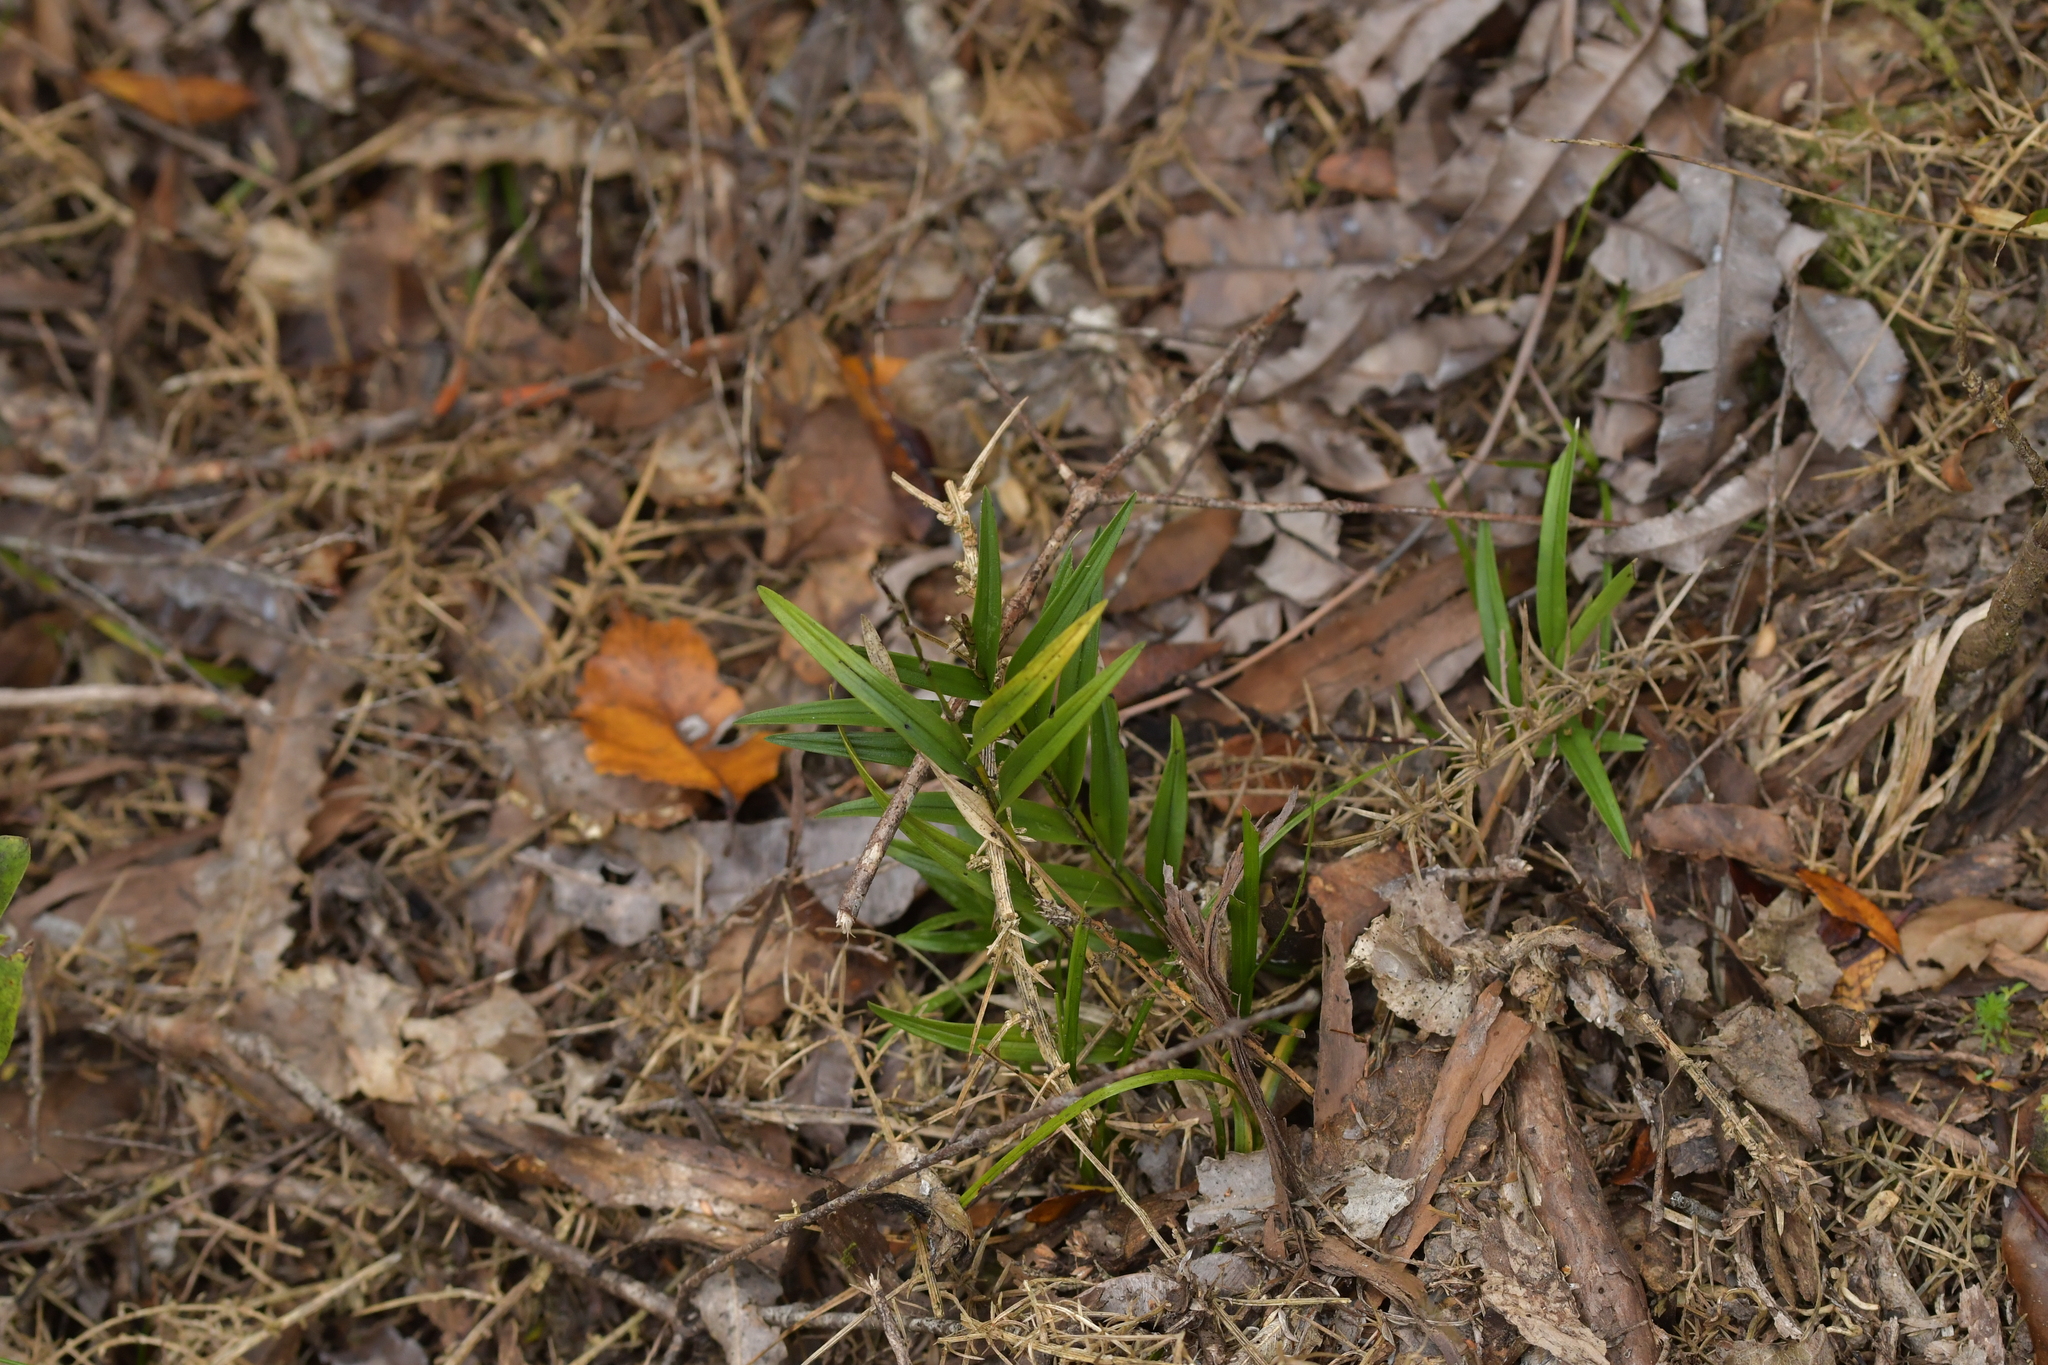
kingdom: Plantae
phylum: Tracheophyta
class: Liliopsida
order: Asparagales
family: Orchidaceae
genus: Earina
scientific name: Earina autumnalis
